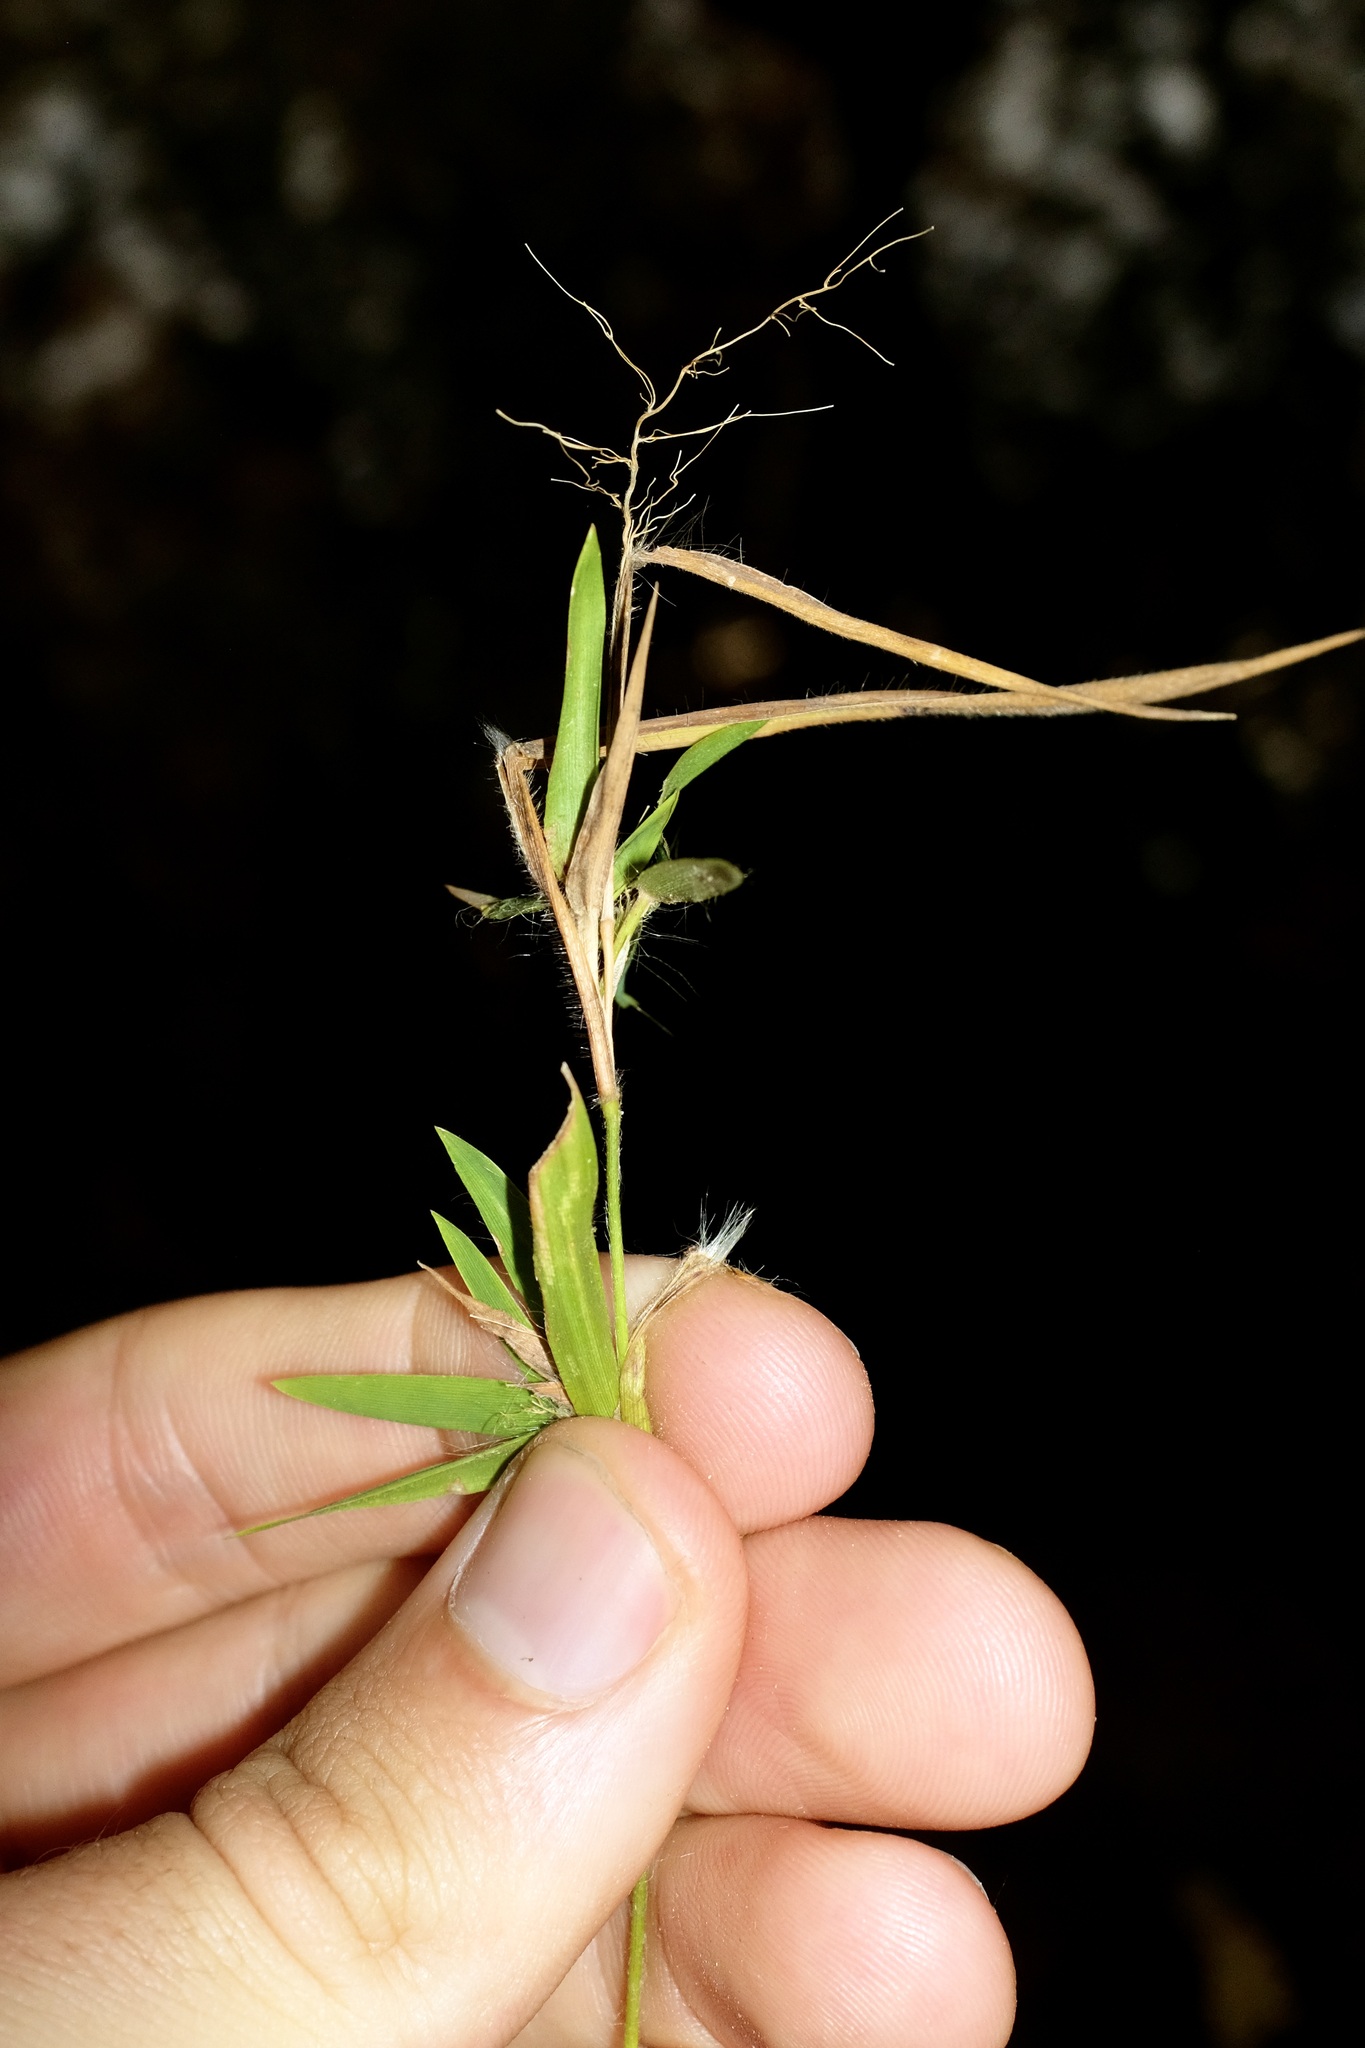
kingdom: Plantae
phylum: Tracheophyta
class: Liliopsida
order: Poales
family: Poaceae
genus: Dichanthelium
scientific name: Dichanthelium lanuginosum
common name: Woolly panicgrass
